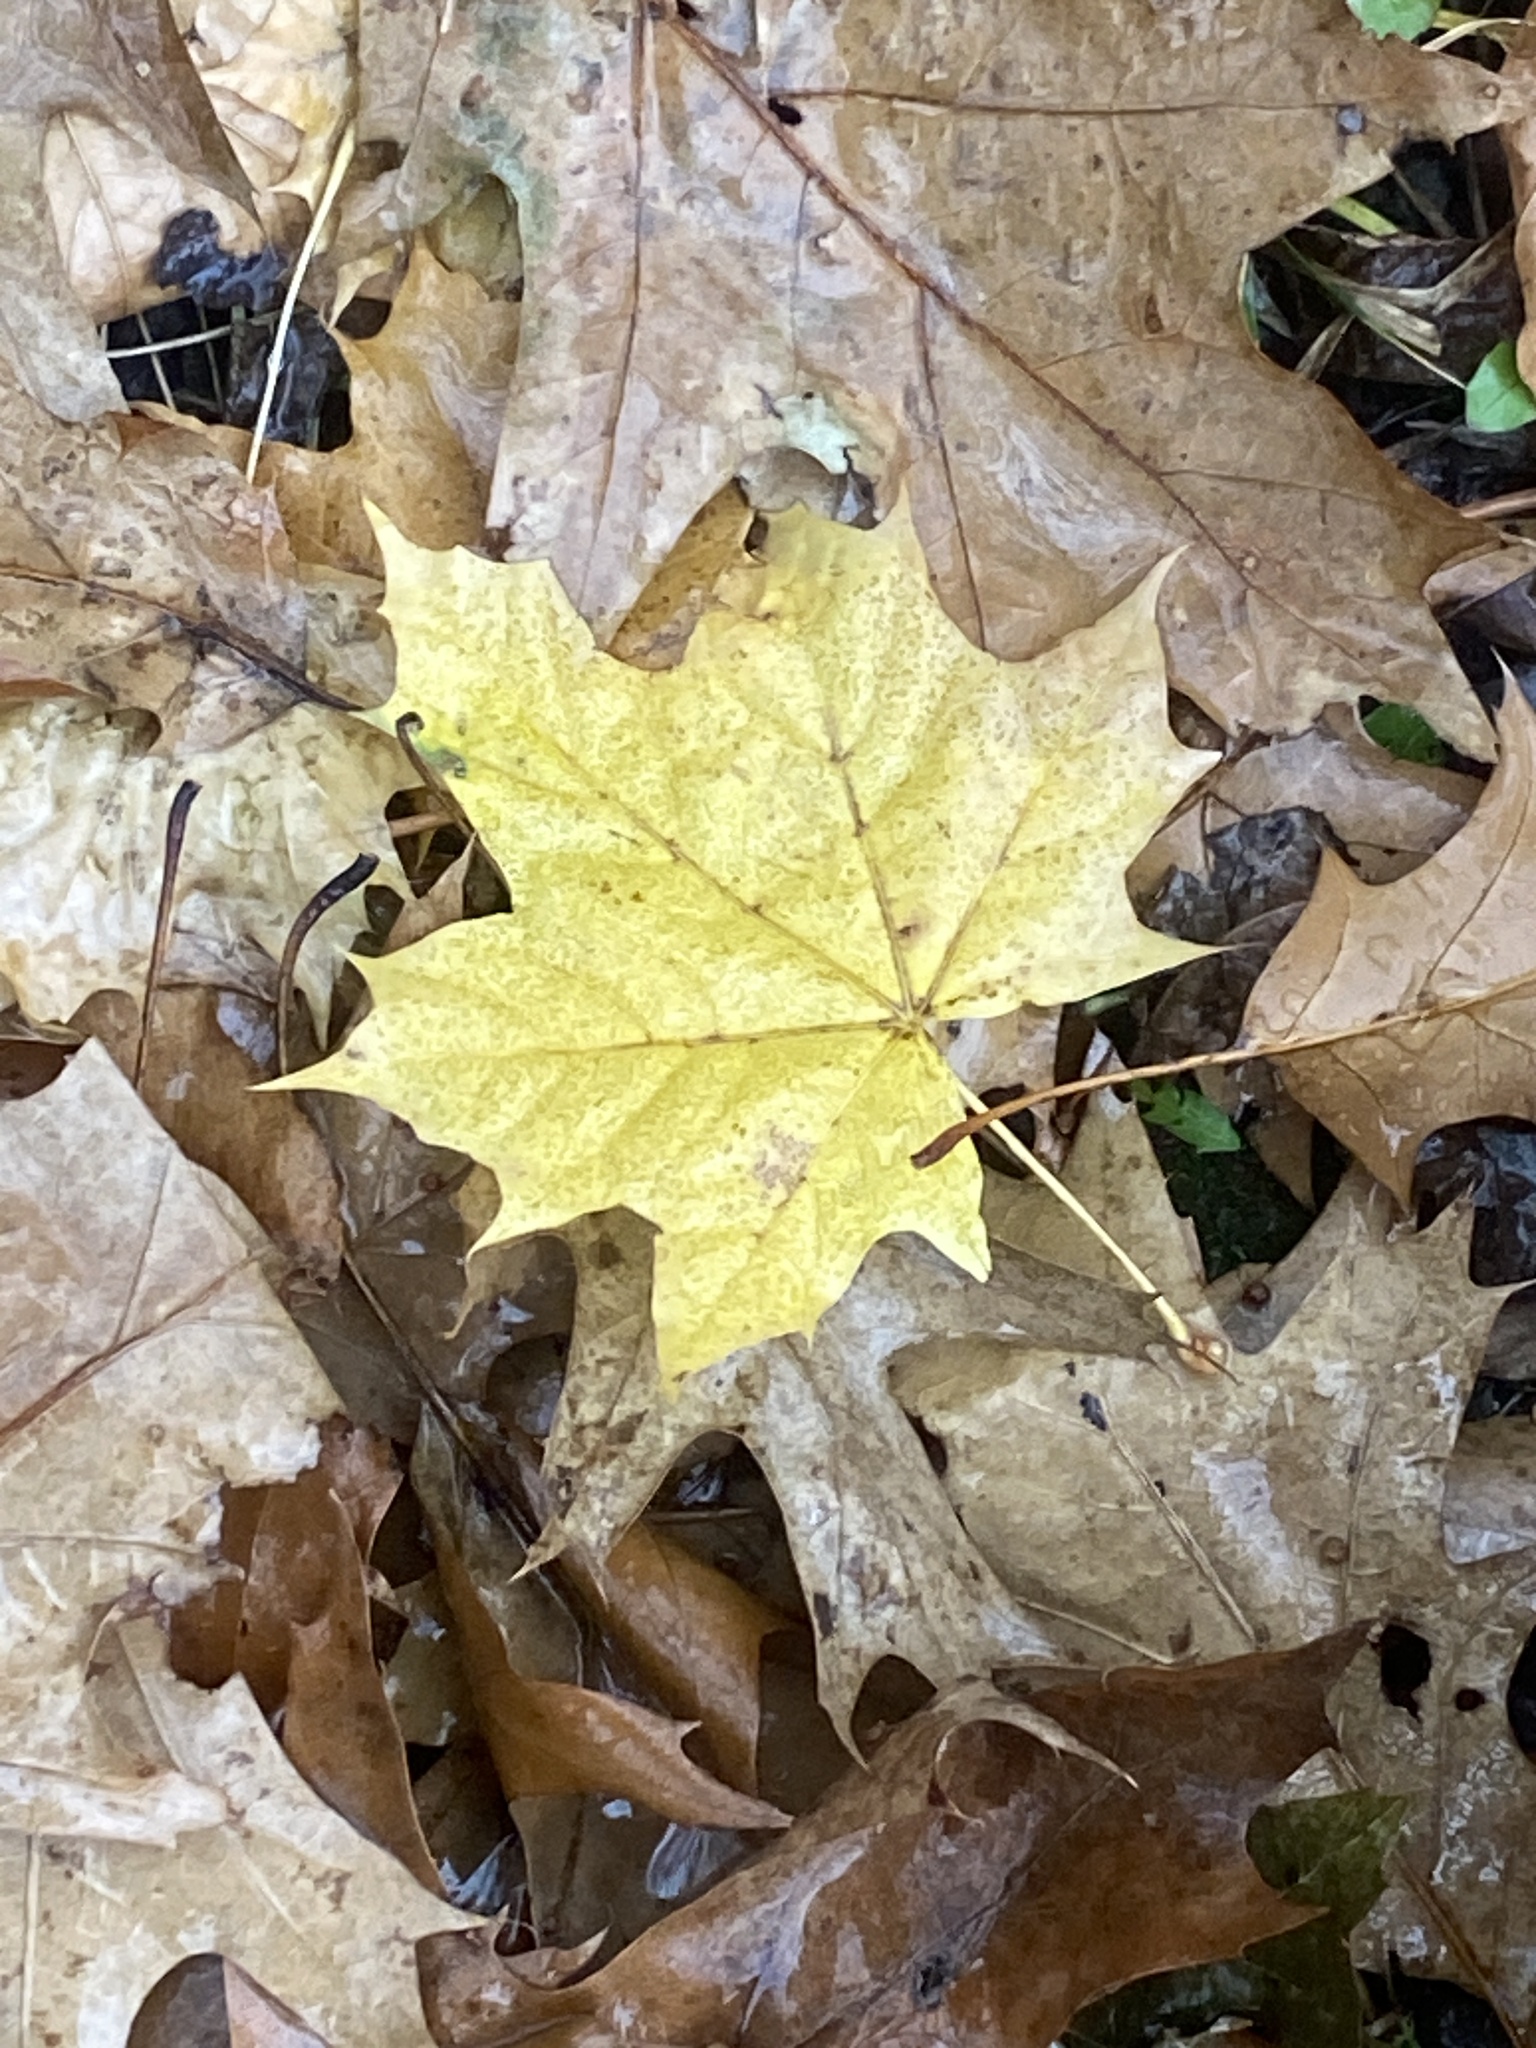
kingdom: Plantae
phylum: Tracheophyta
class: Magnoliopsida
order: Sapindales
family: Sapindaceae
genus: Acer
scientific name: Acer platanoides
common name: Norway maple
